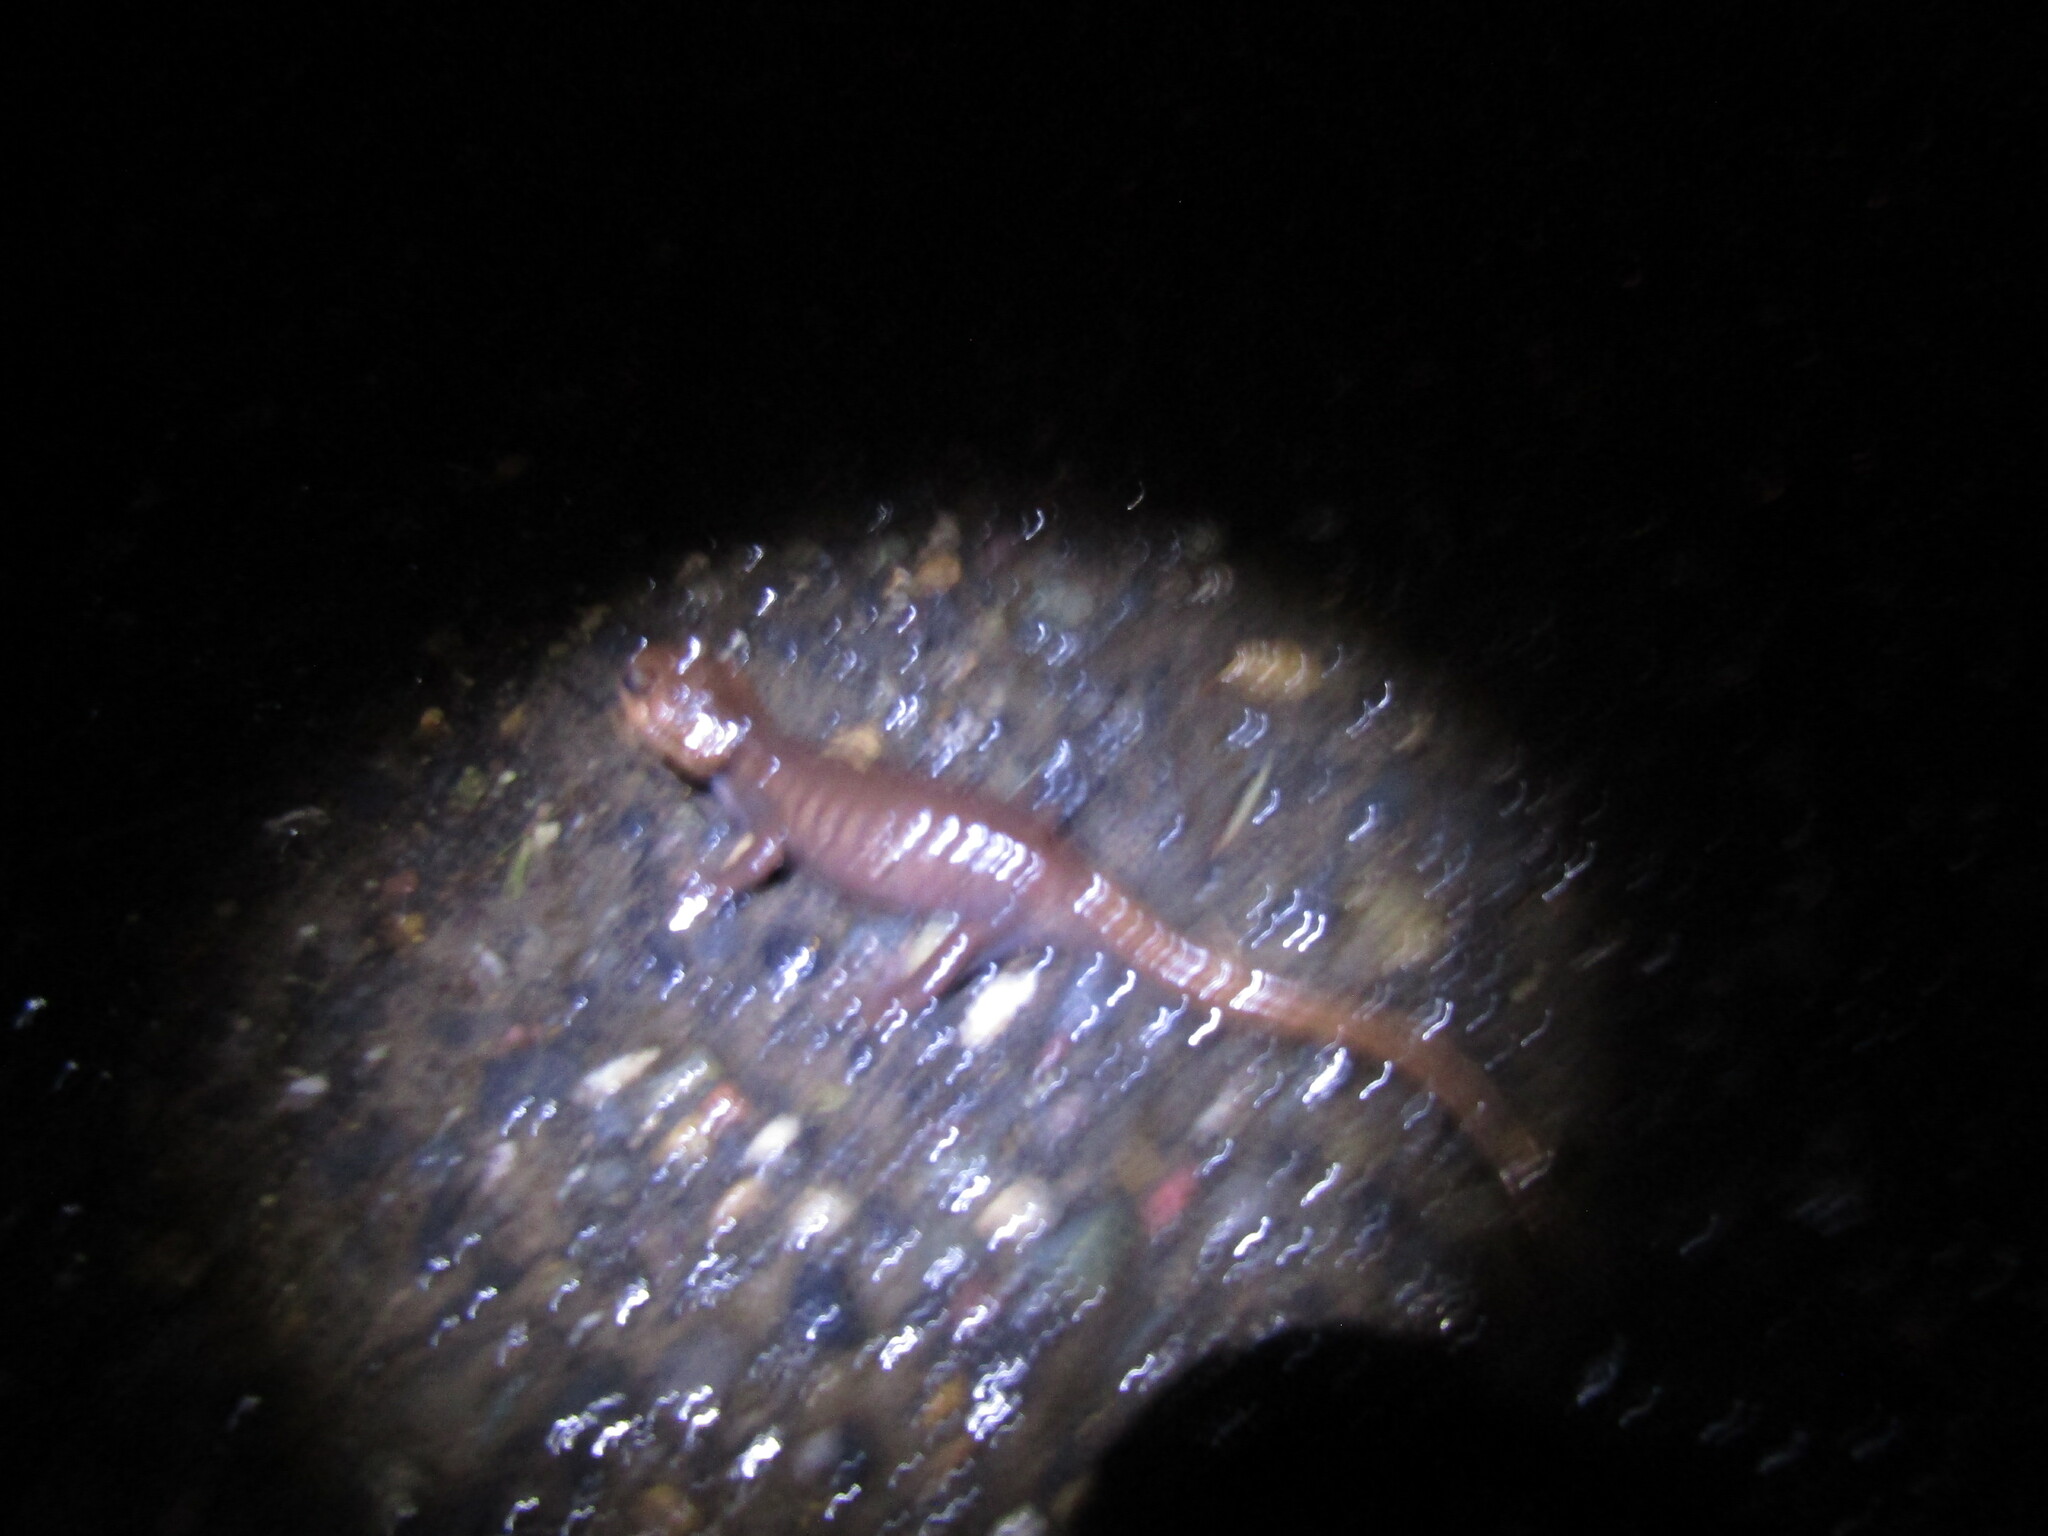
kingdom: Animalia
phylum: Chordata
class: Amphibia
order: Caudata
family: Ambystomatidae
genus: Ambystoma
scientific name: Ambystoma gracile
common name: Northwestern salamander
